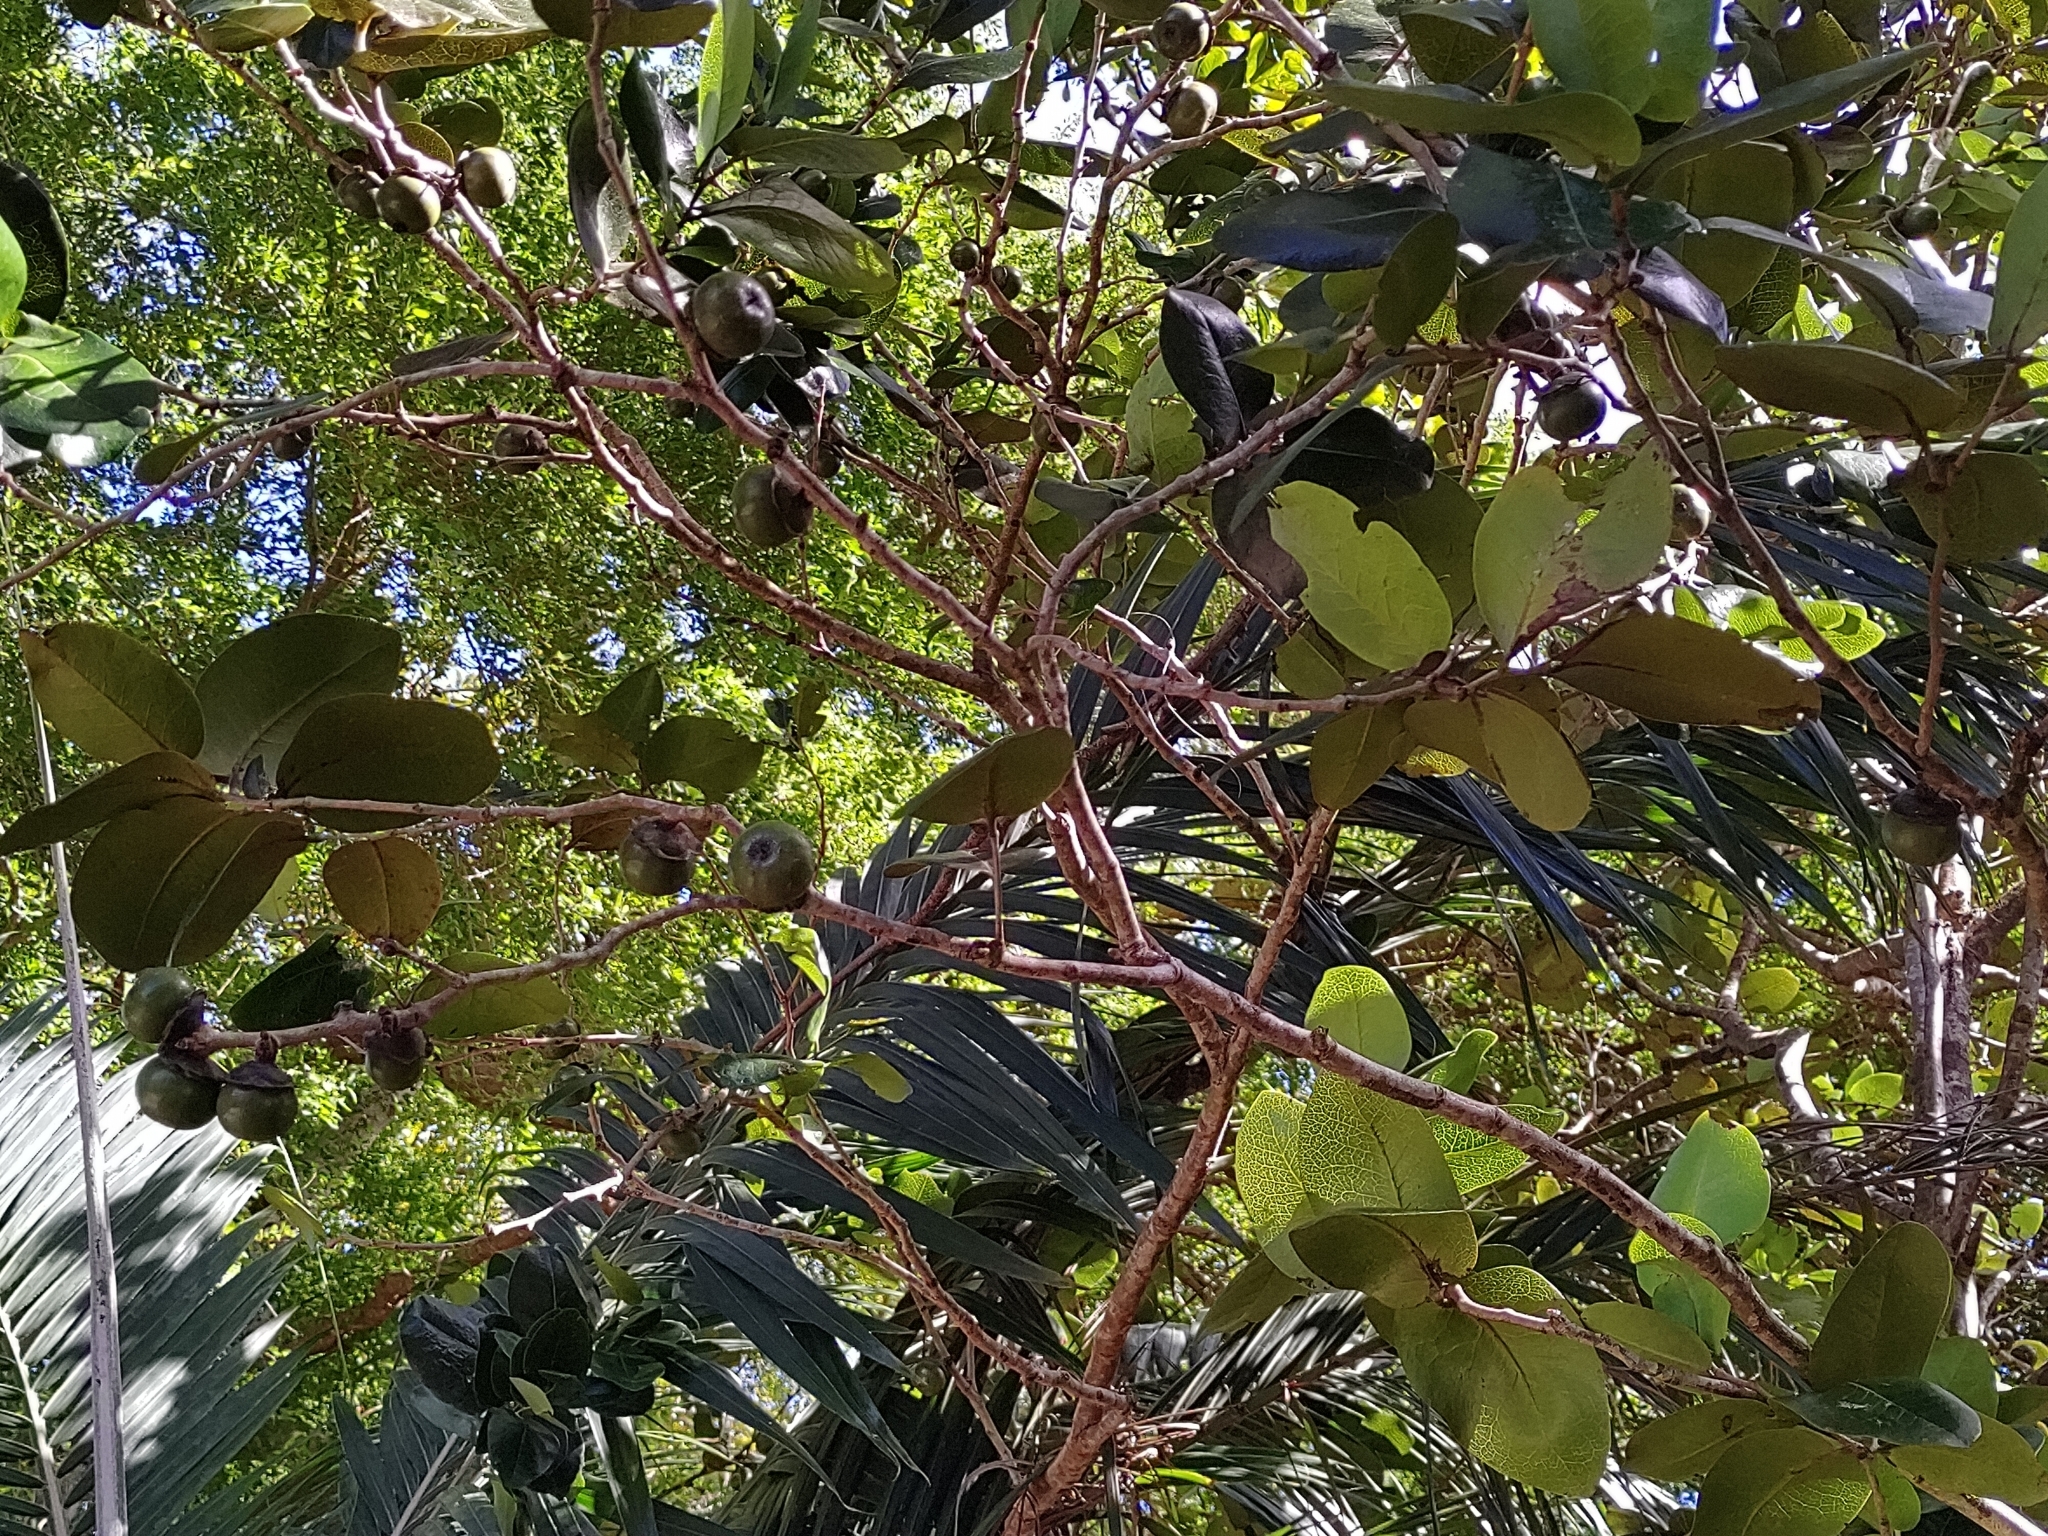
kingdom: Plantae
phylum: Tracheophyta
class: Magnoliopsida
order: Ericales
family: Ebenaceae
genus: Diospyros
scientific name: Diospyros egrettarum
